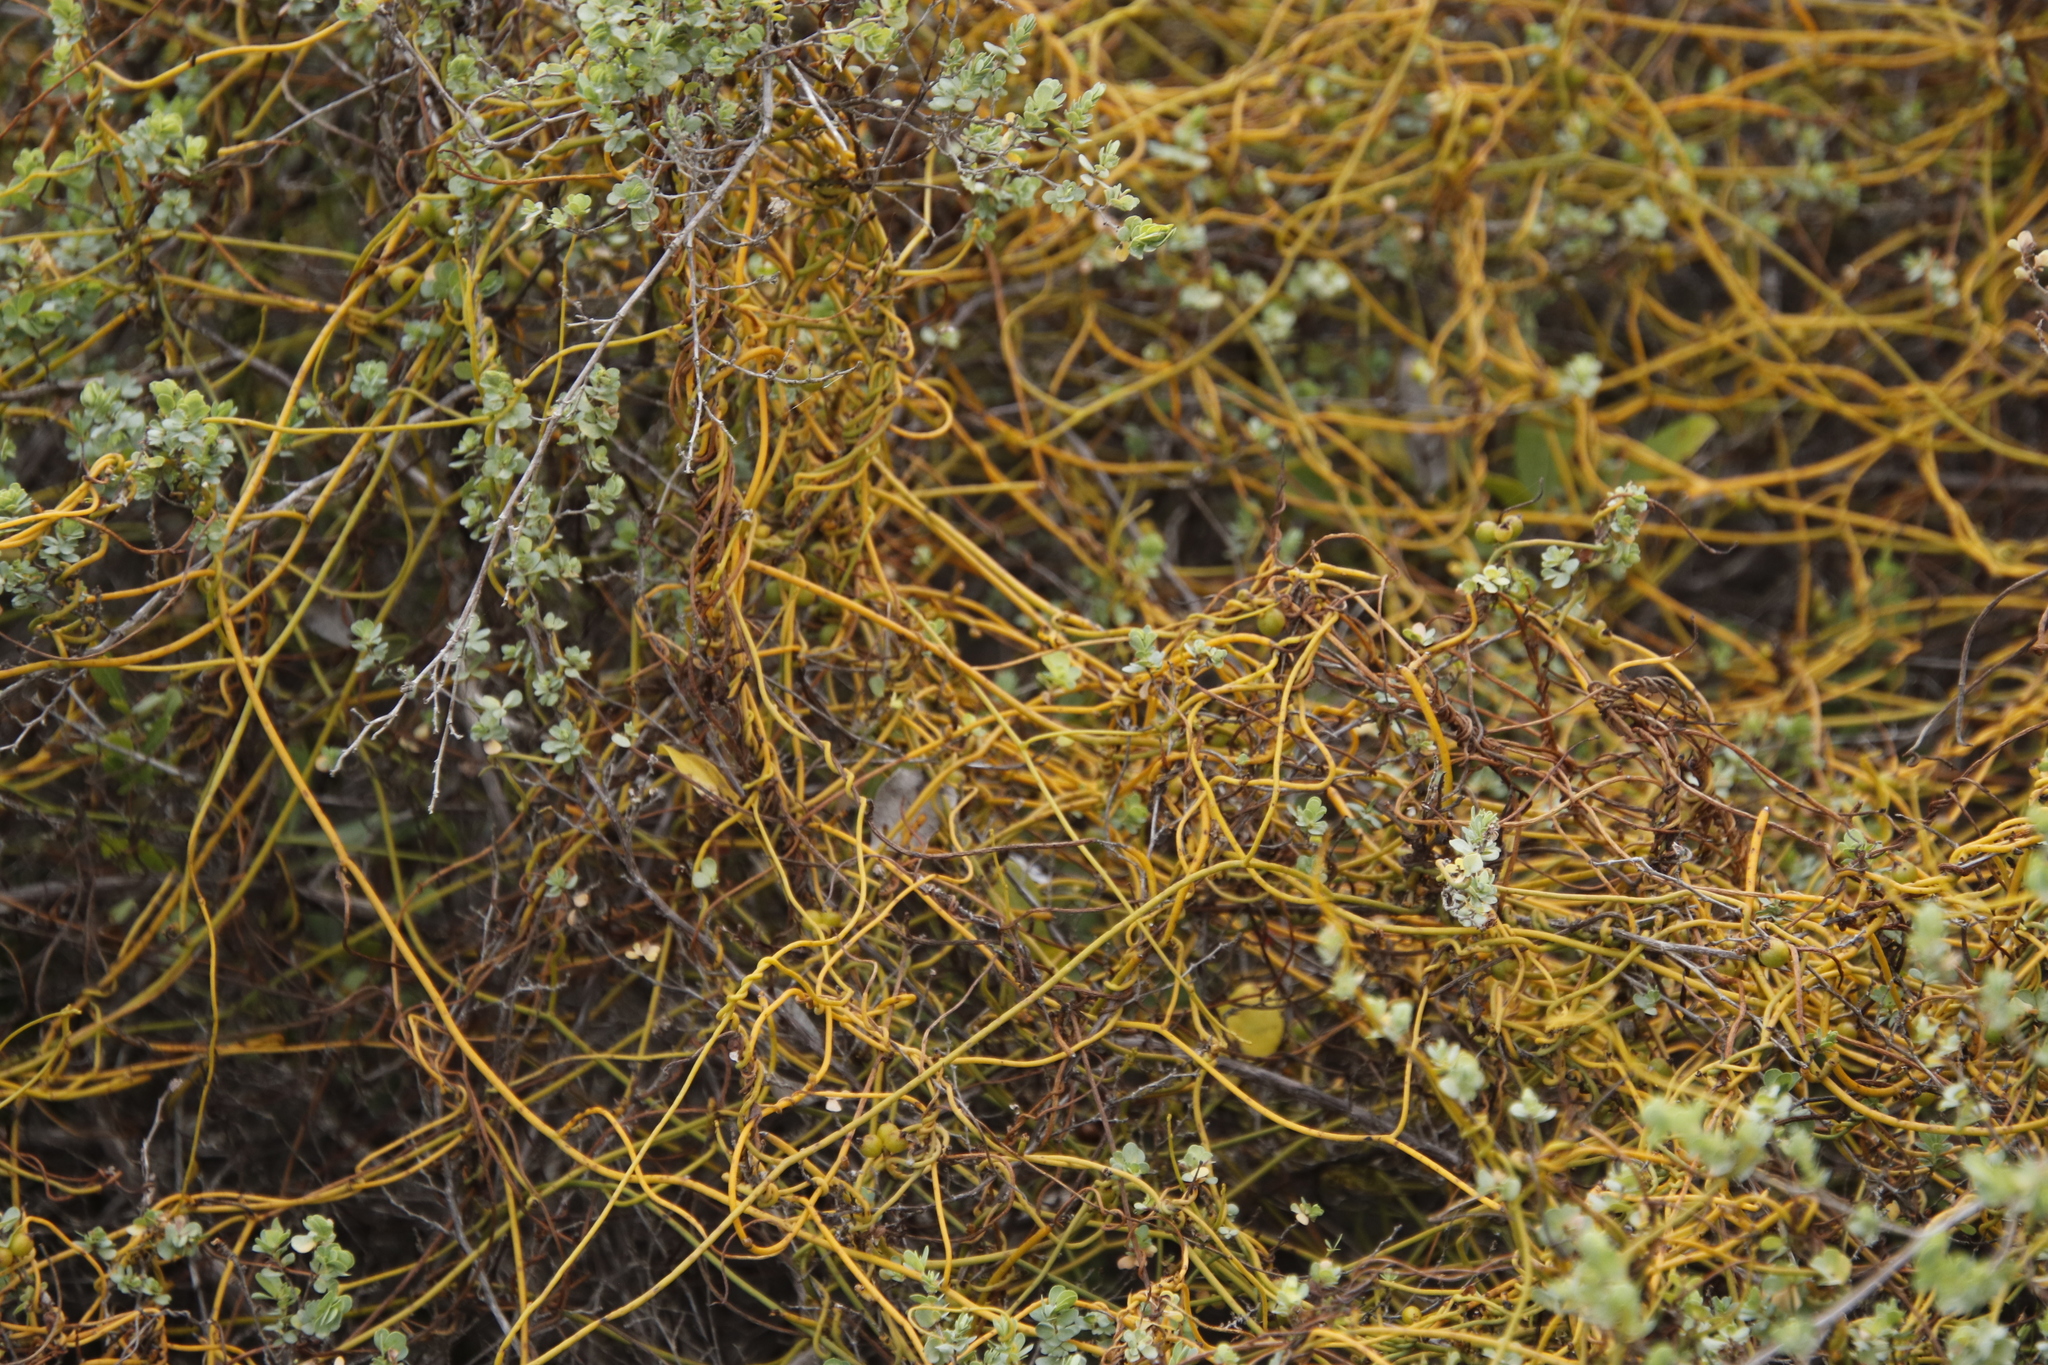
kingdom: Plantae
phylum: Tracheophyta
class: Magnoliopsida
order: Laurales
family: Lauraceae
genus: Cassytha
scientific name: Cassytha ciliolata
